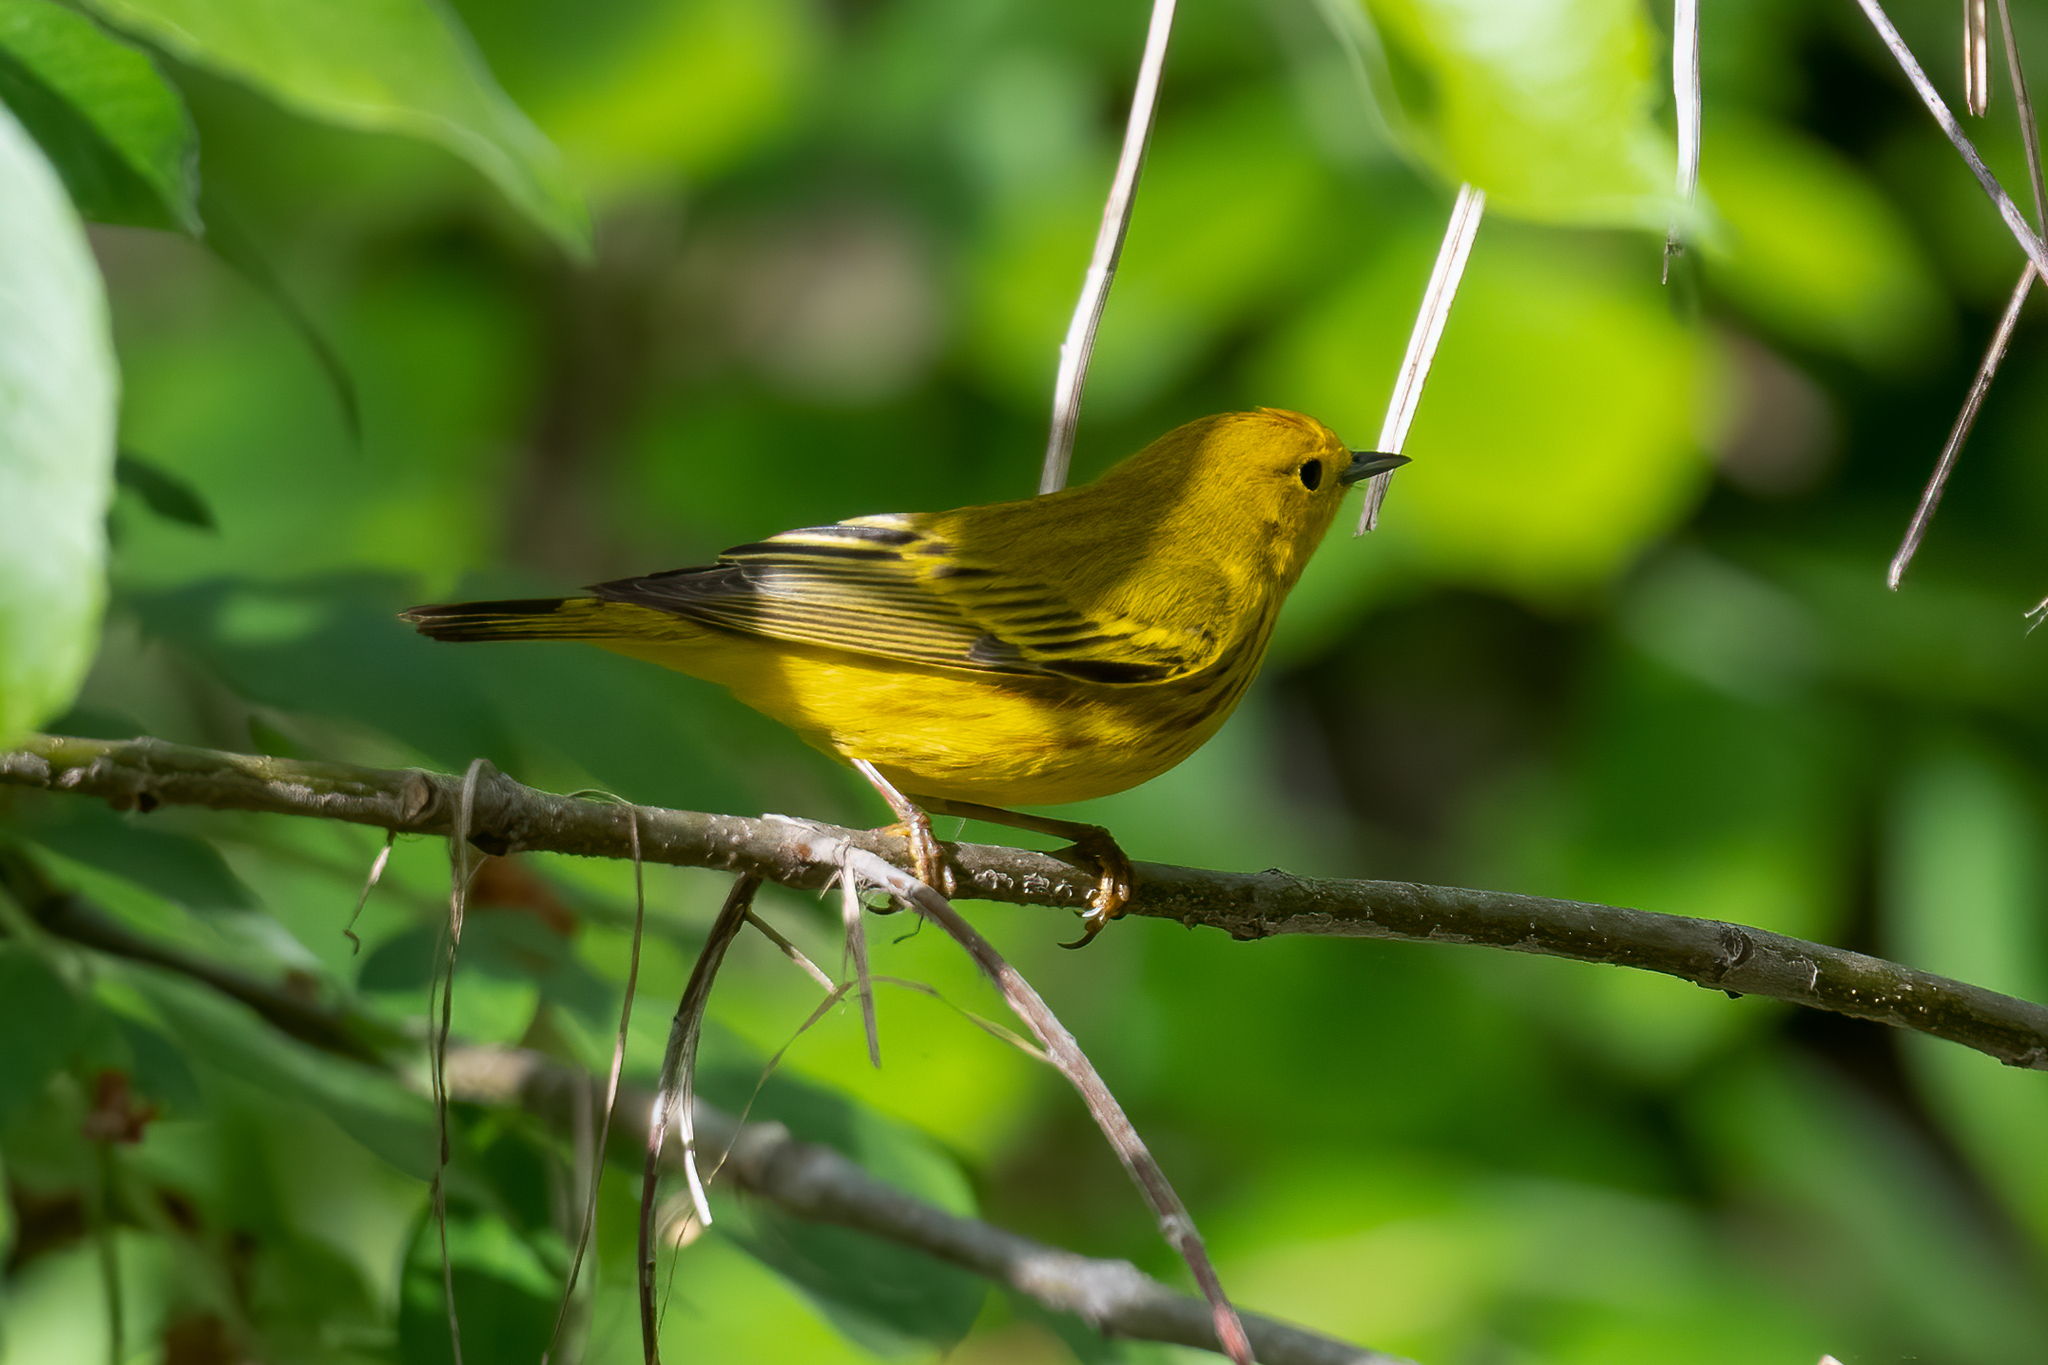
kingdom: Animalia
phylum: Chordata
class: Aves
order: Passeriformes
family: Parulidae
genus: Setophaga
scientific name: Setophaga petechia
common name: Yellow warbler
